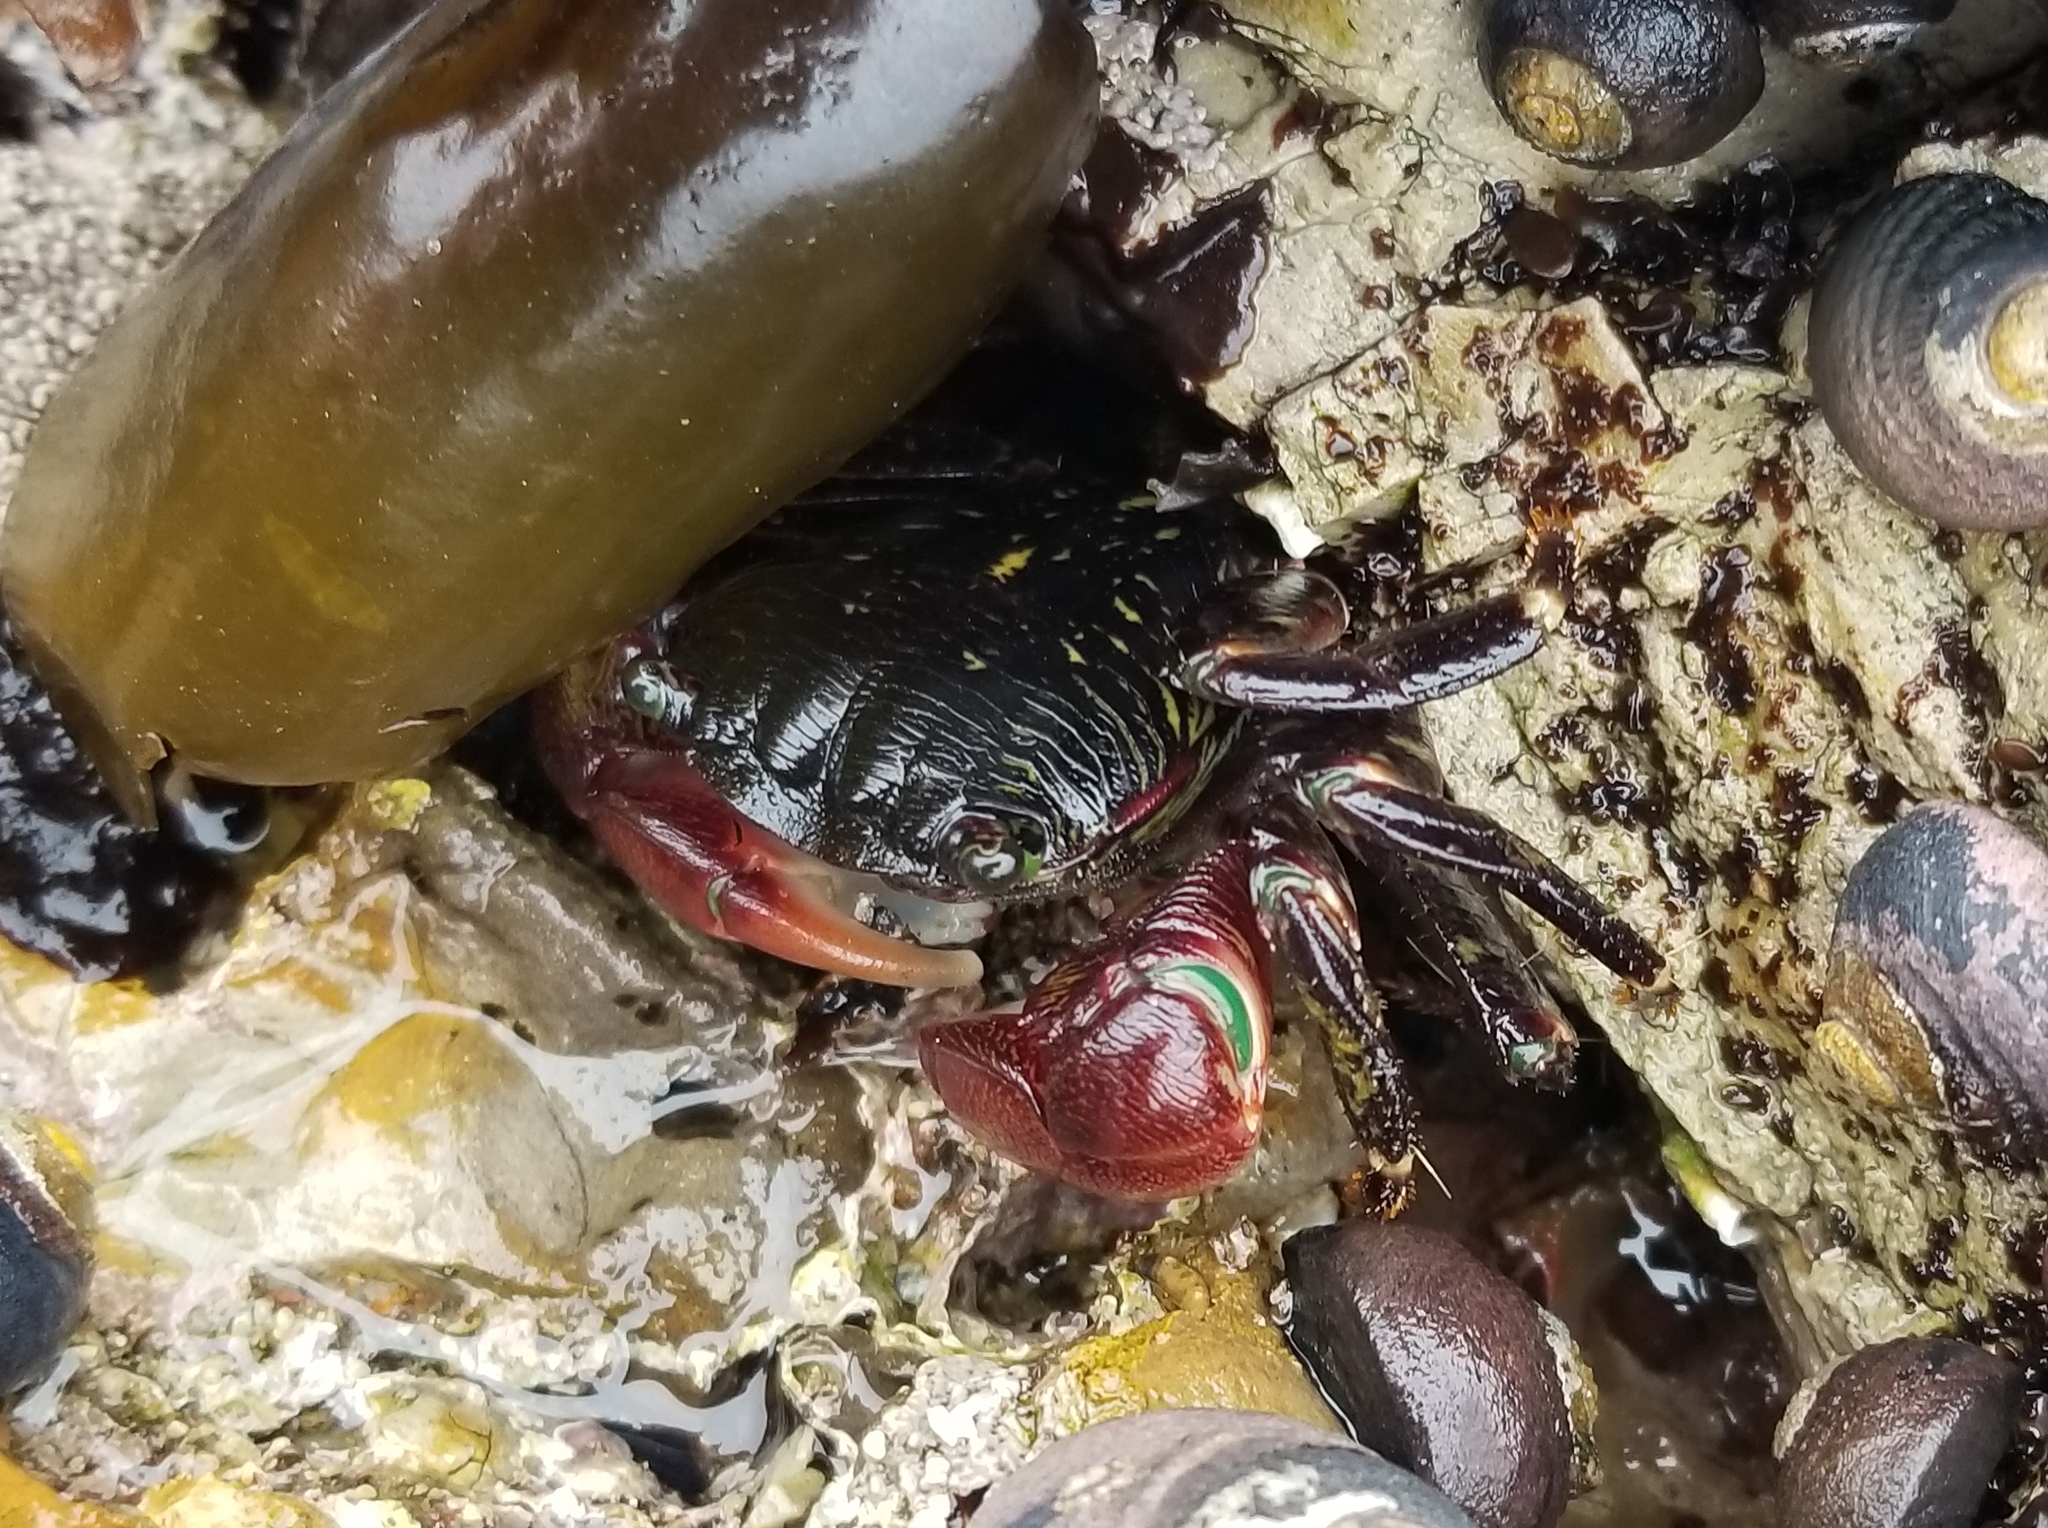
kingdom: Animalia
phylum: Arthropoda
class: Malacostraca
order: Decapoda
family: Grapsidae
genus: Pachygrapsus
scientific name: Pachygrapsus crassipes
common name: Striped shore crab
